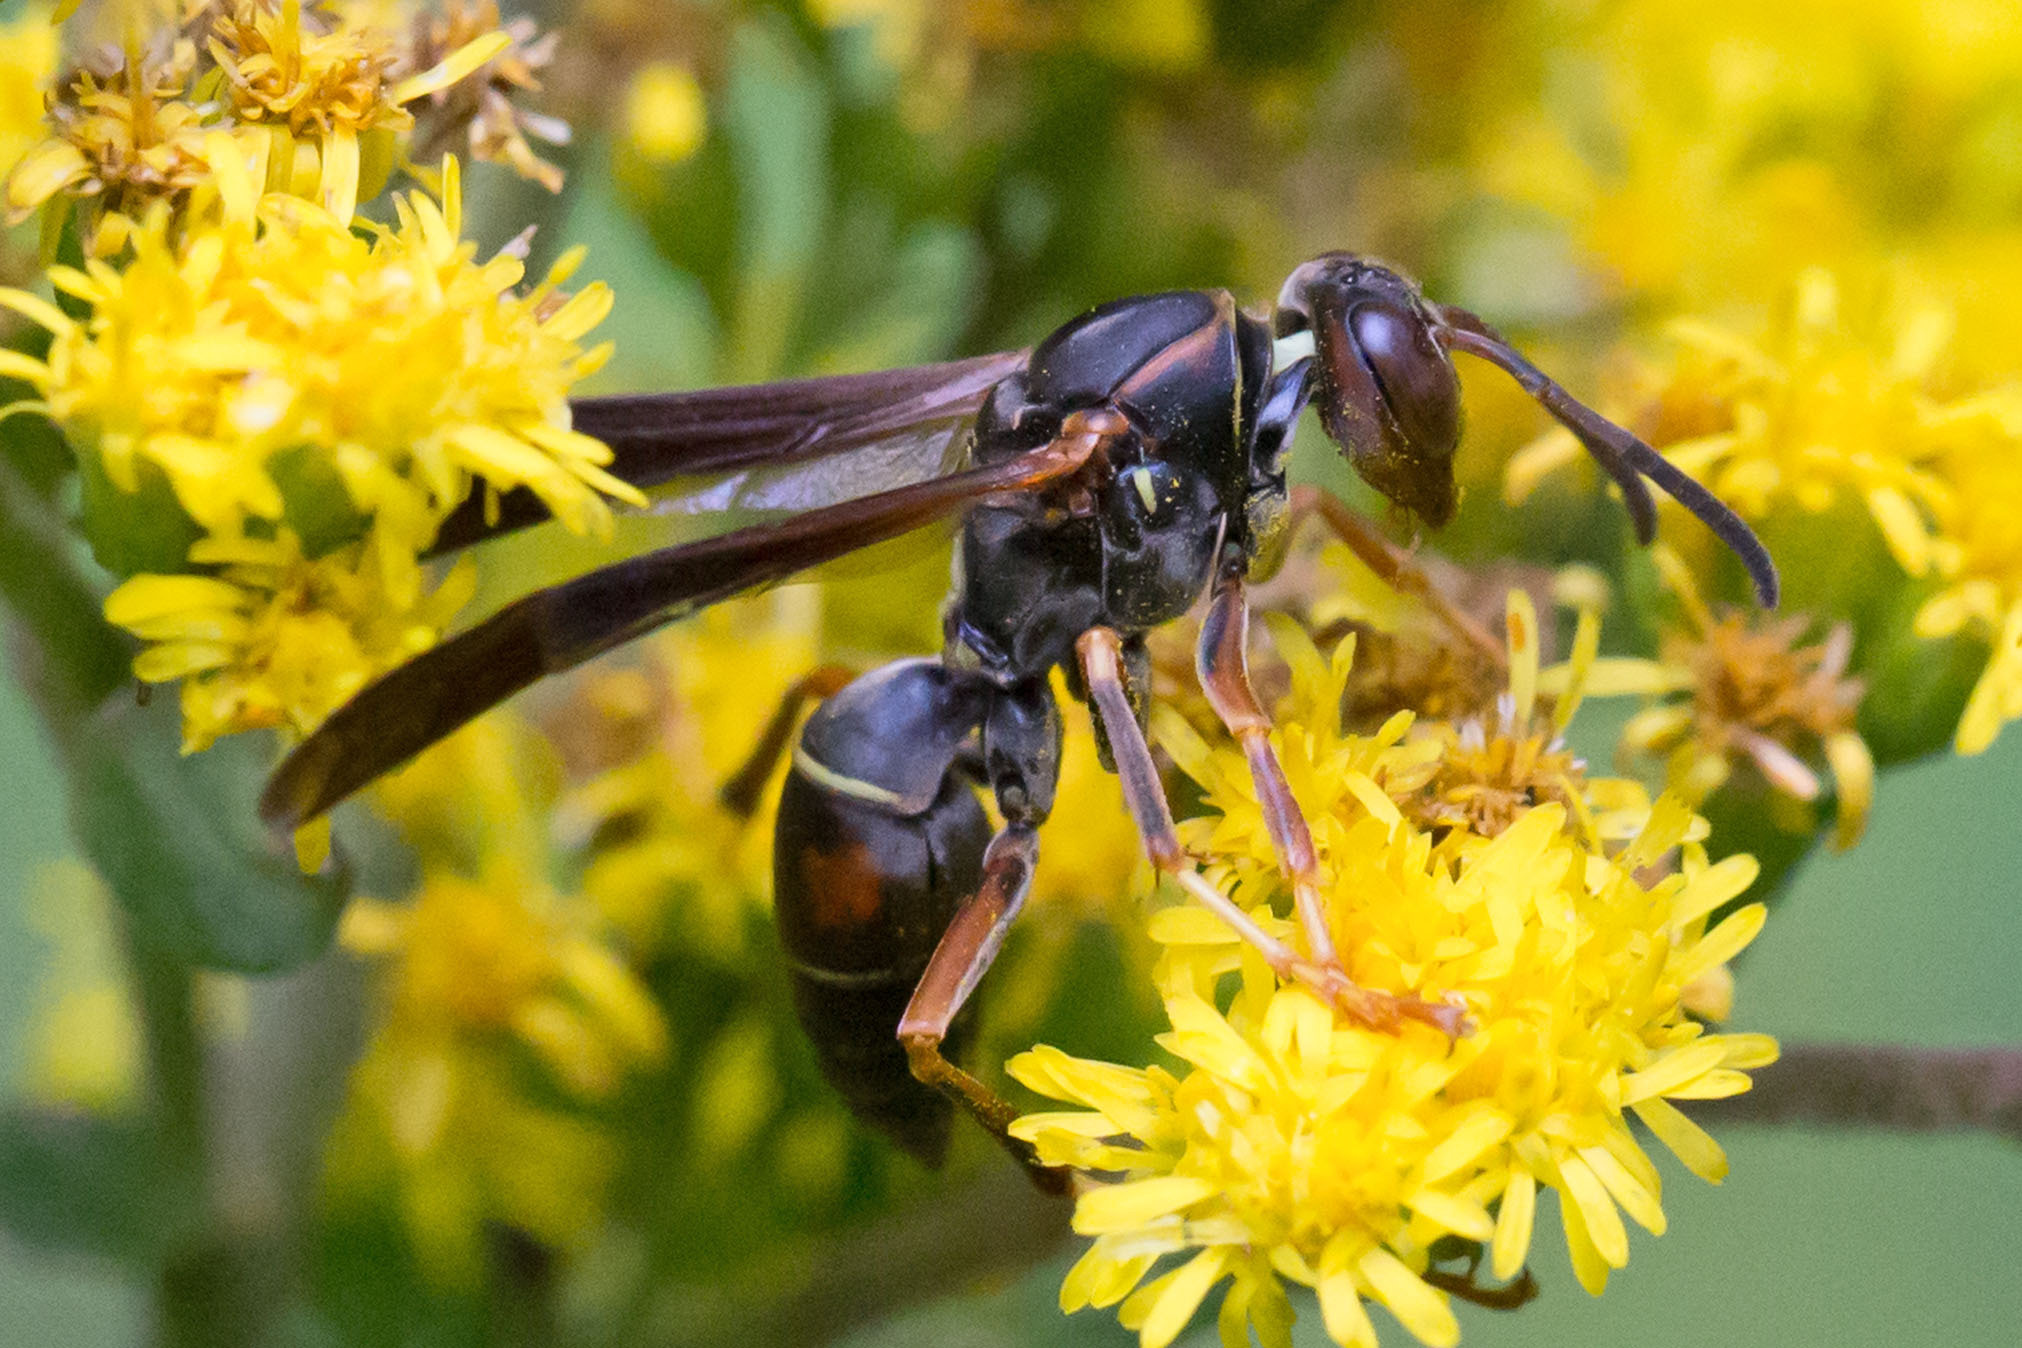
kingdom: Animalia
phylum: Arthropoda
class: Insecta
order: Hymenoptera
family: Eumenidae
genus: Polistes
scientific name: Polistes fuscatus
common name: Dark paper wasp
